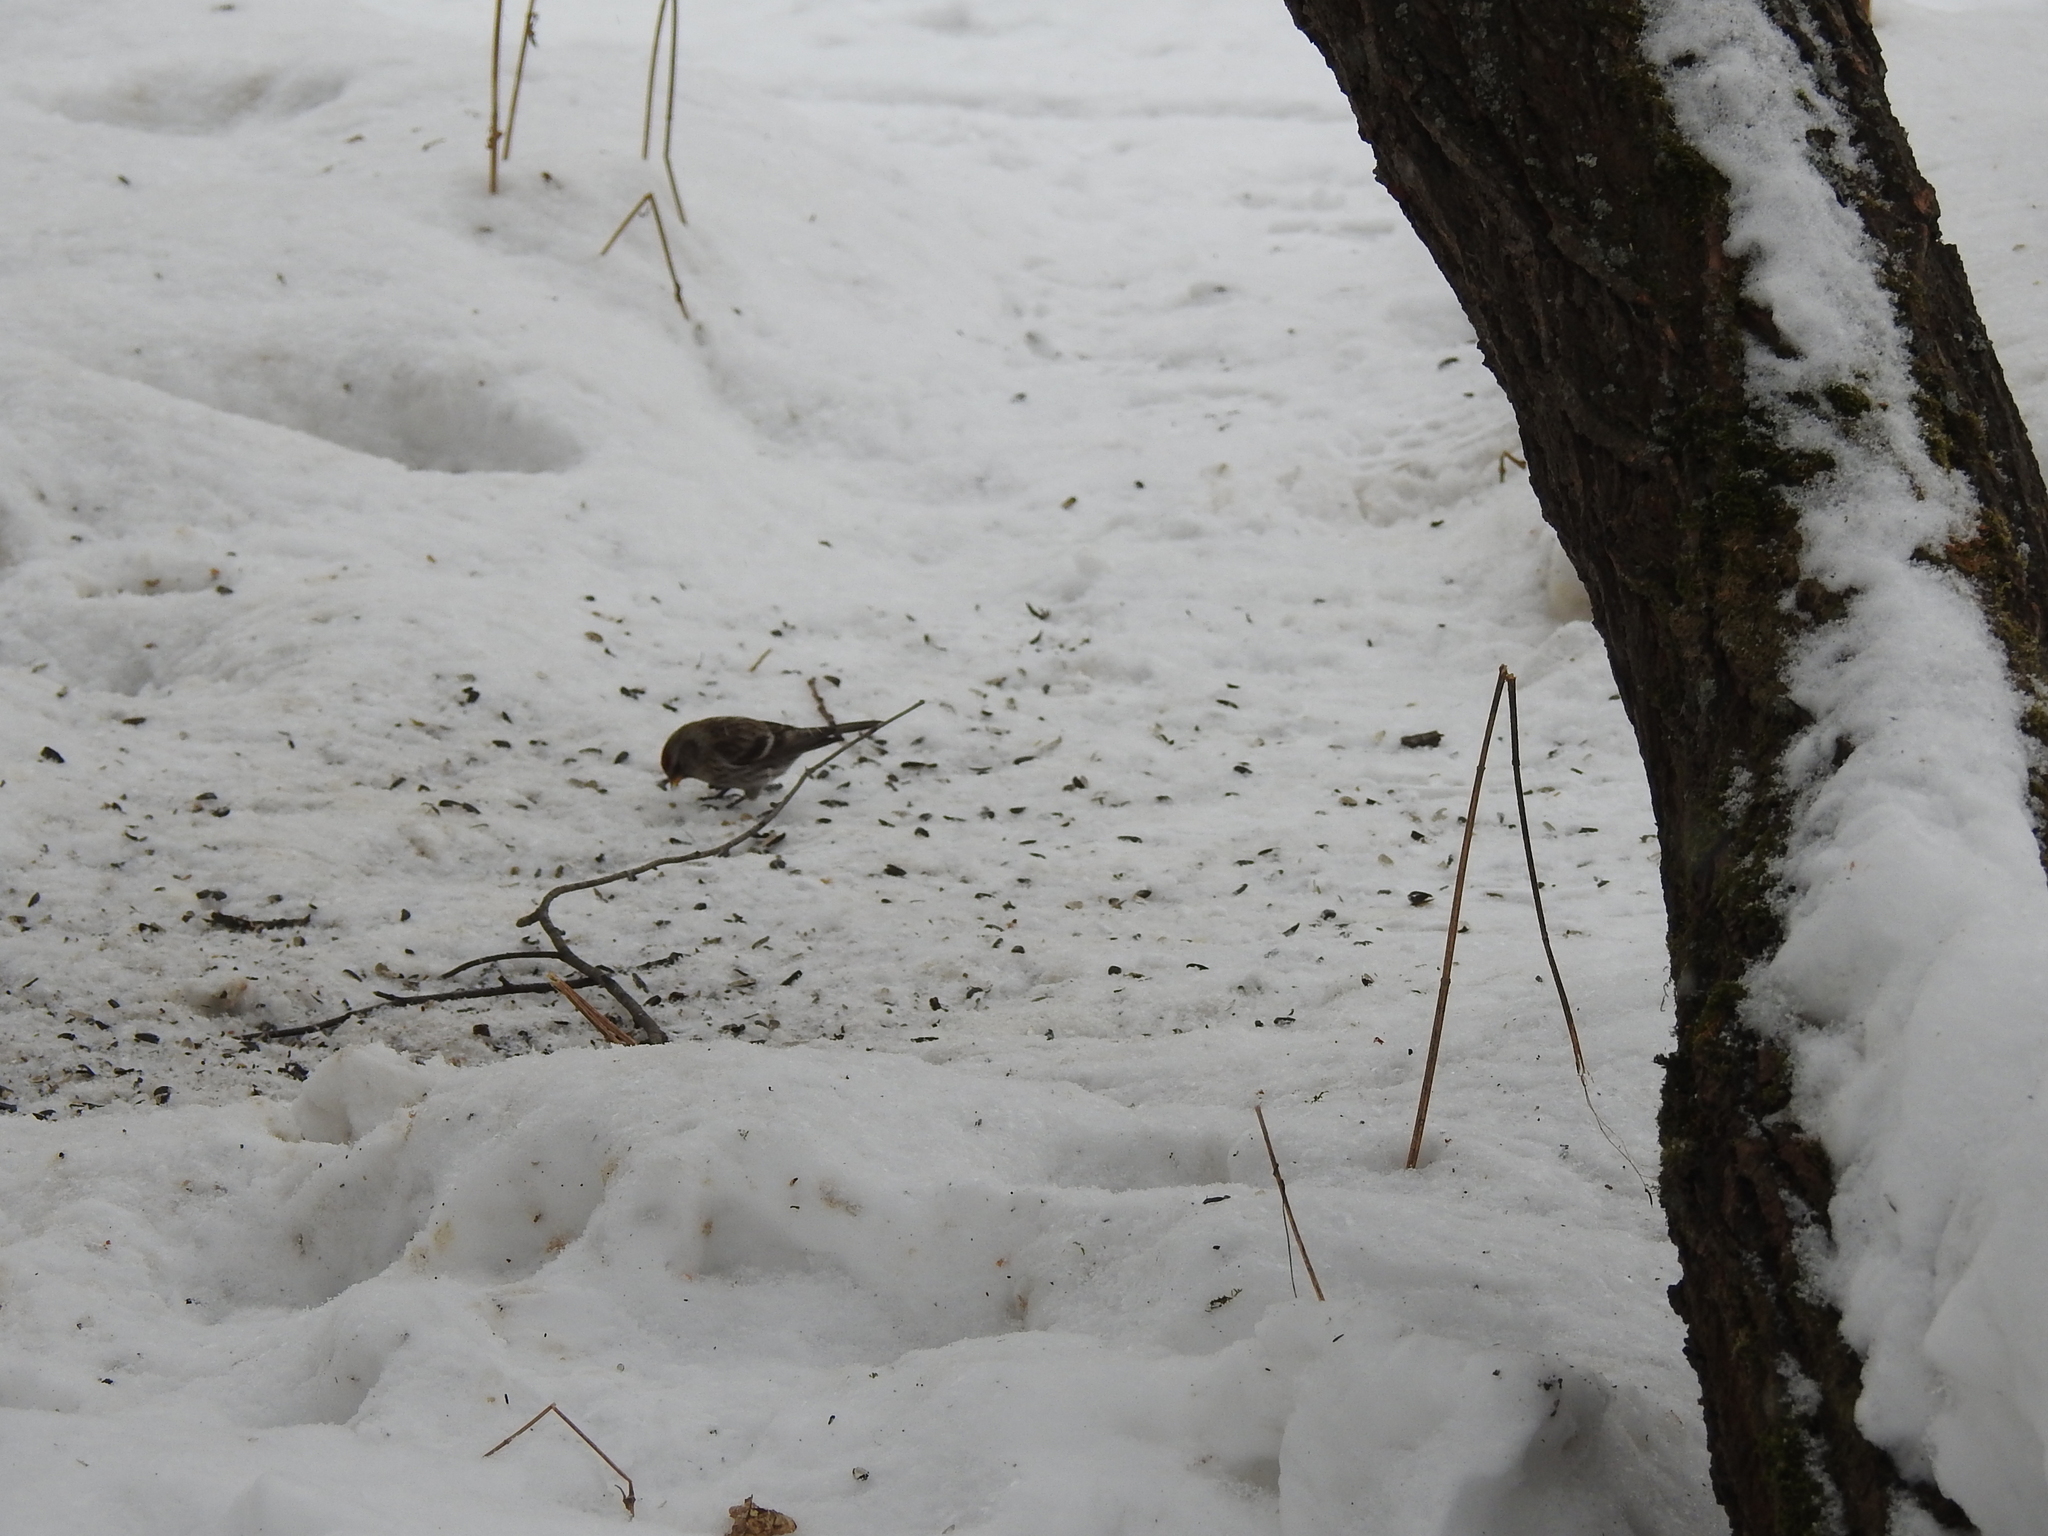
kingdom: Animalia
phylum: Chordata
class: Aves
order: Passeriformes
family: Fringillidae
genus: Acanthis
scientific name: Acanthis flammea
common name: Common redpoll
